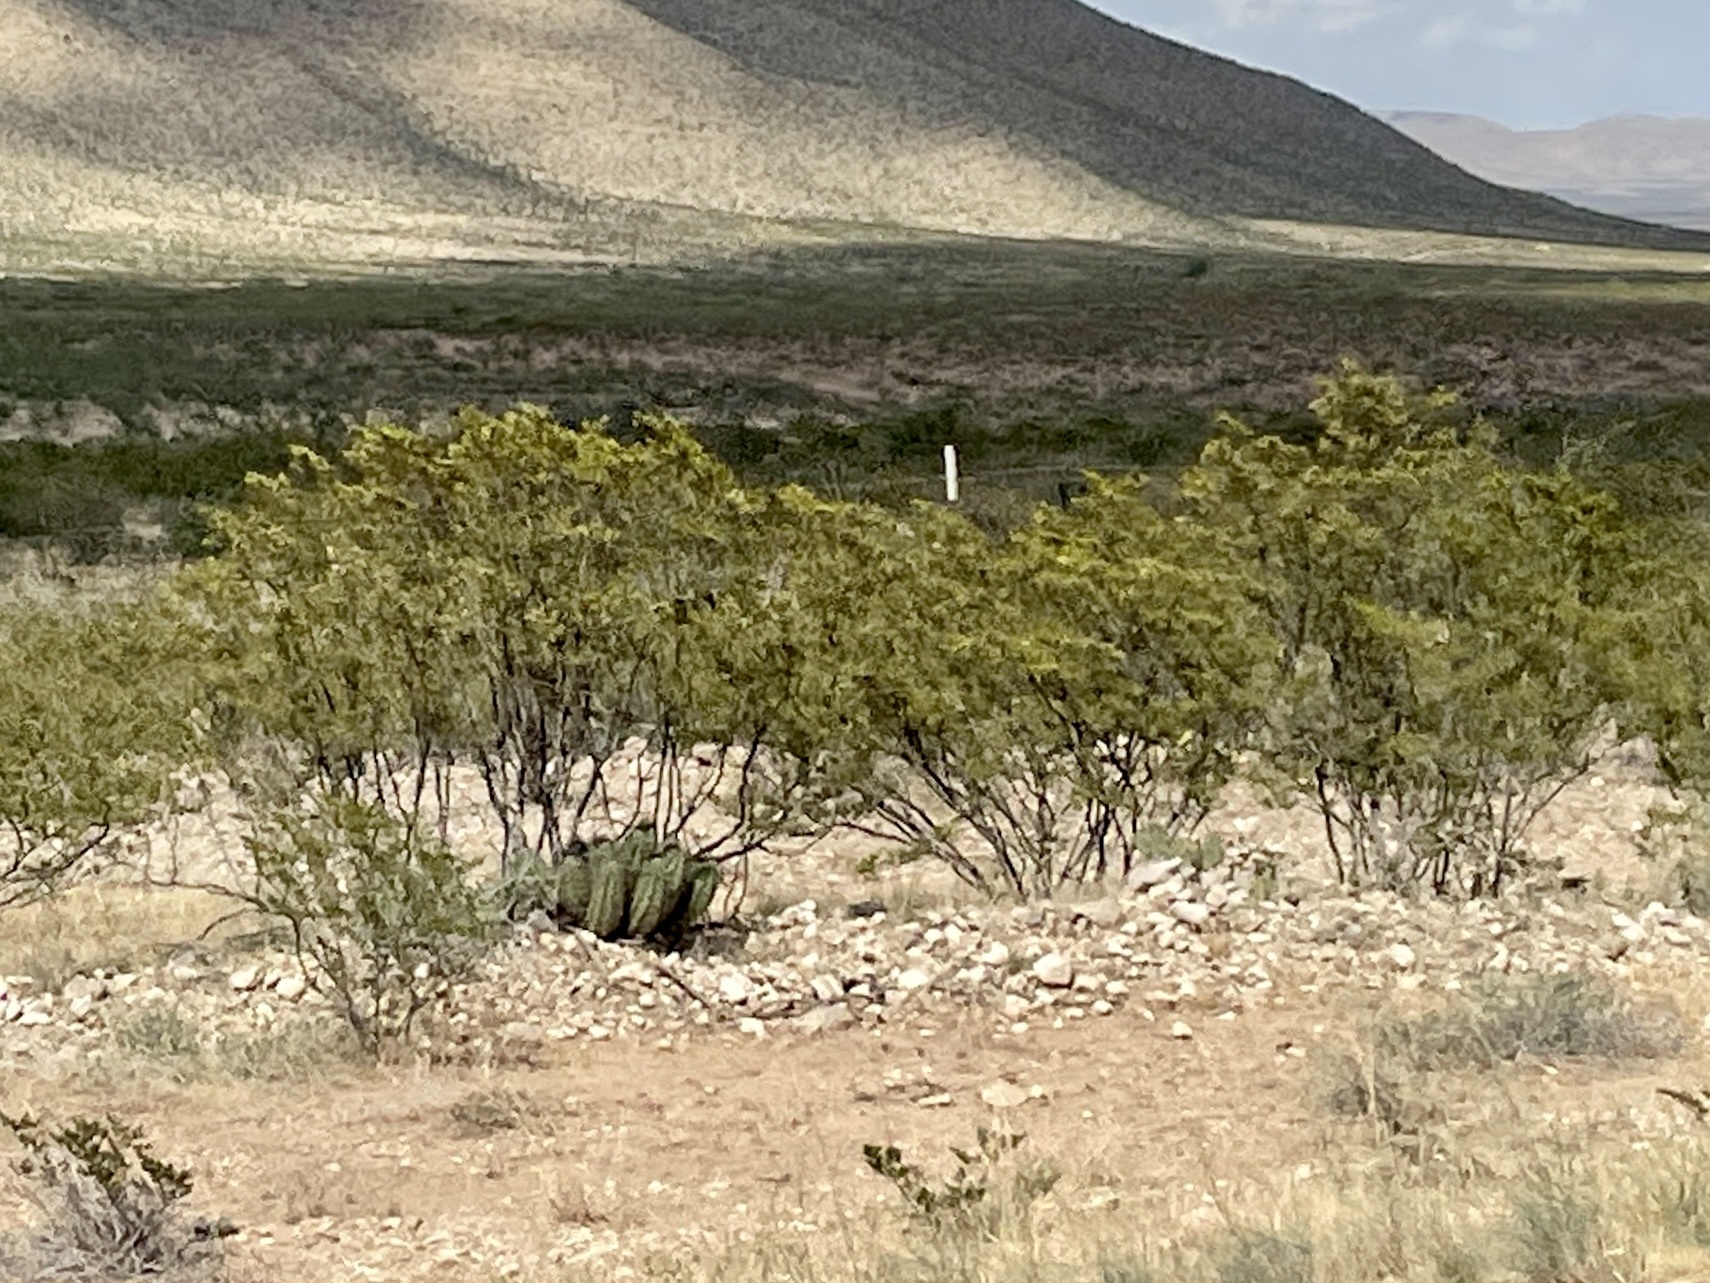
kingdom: Plantae
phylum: Tracheophyta
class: Magnoliopsida
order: Zygophyllales
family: Zygophyllaceae
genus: Larrea
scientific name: Larrea tridentata
